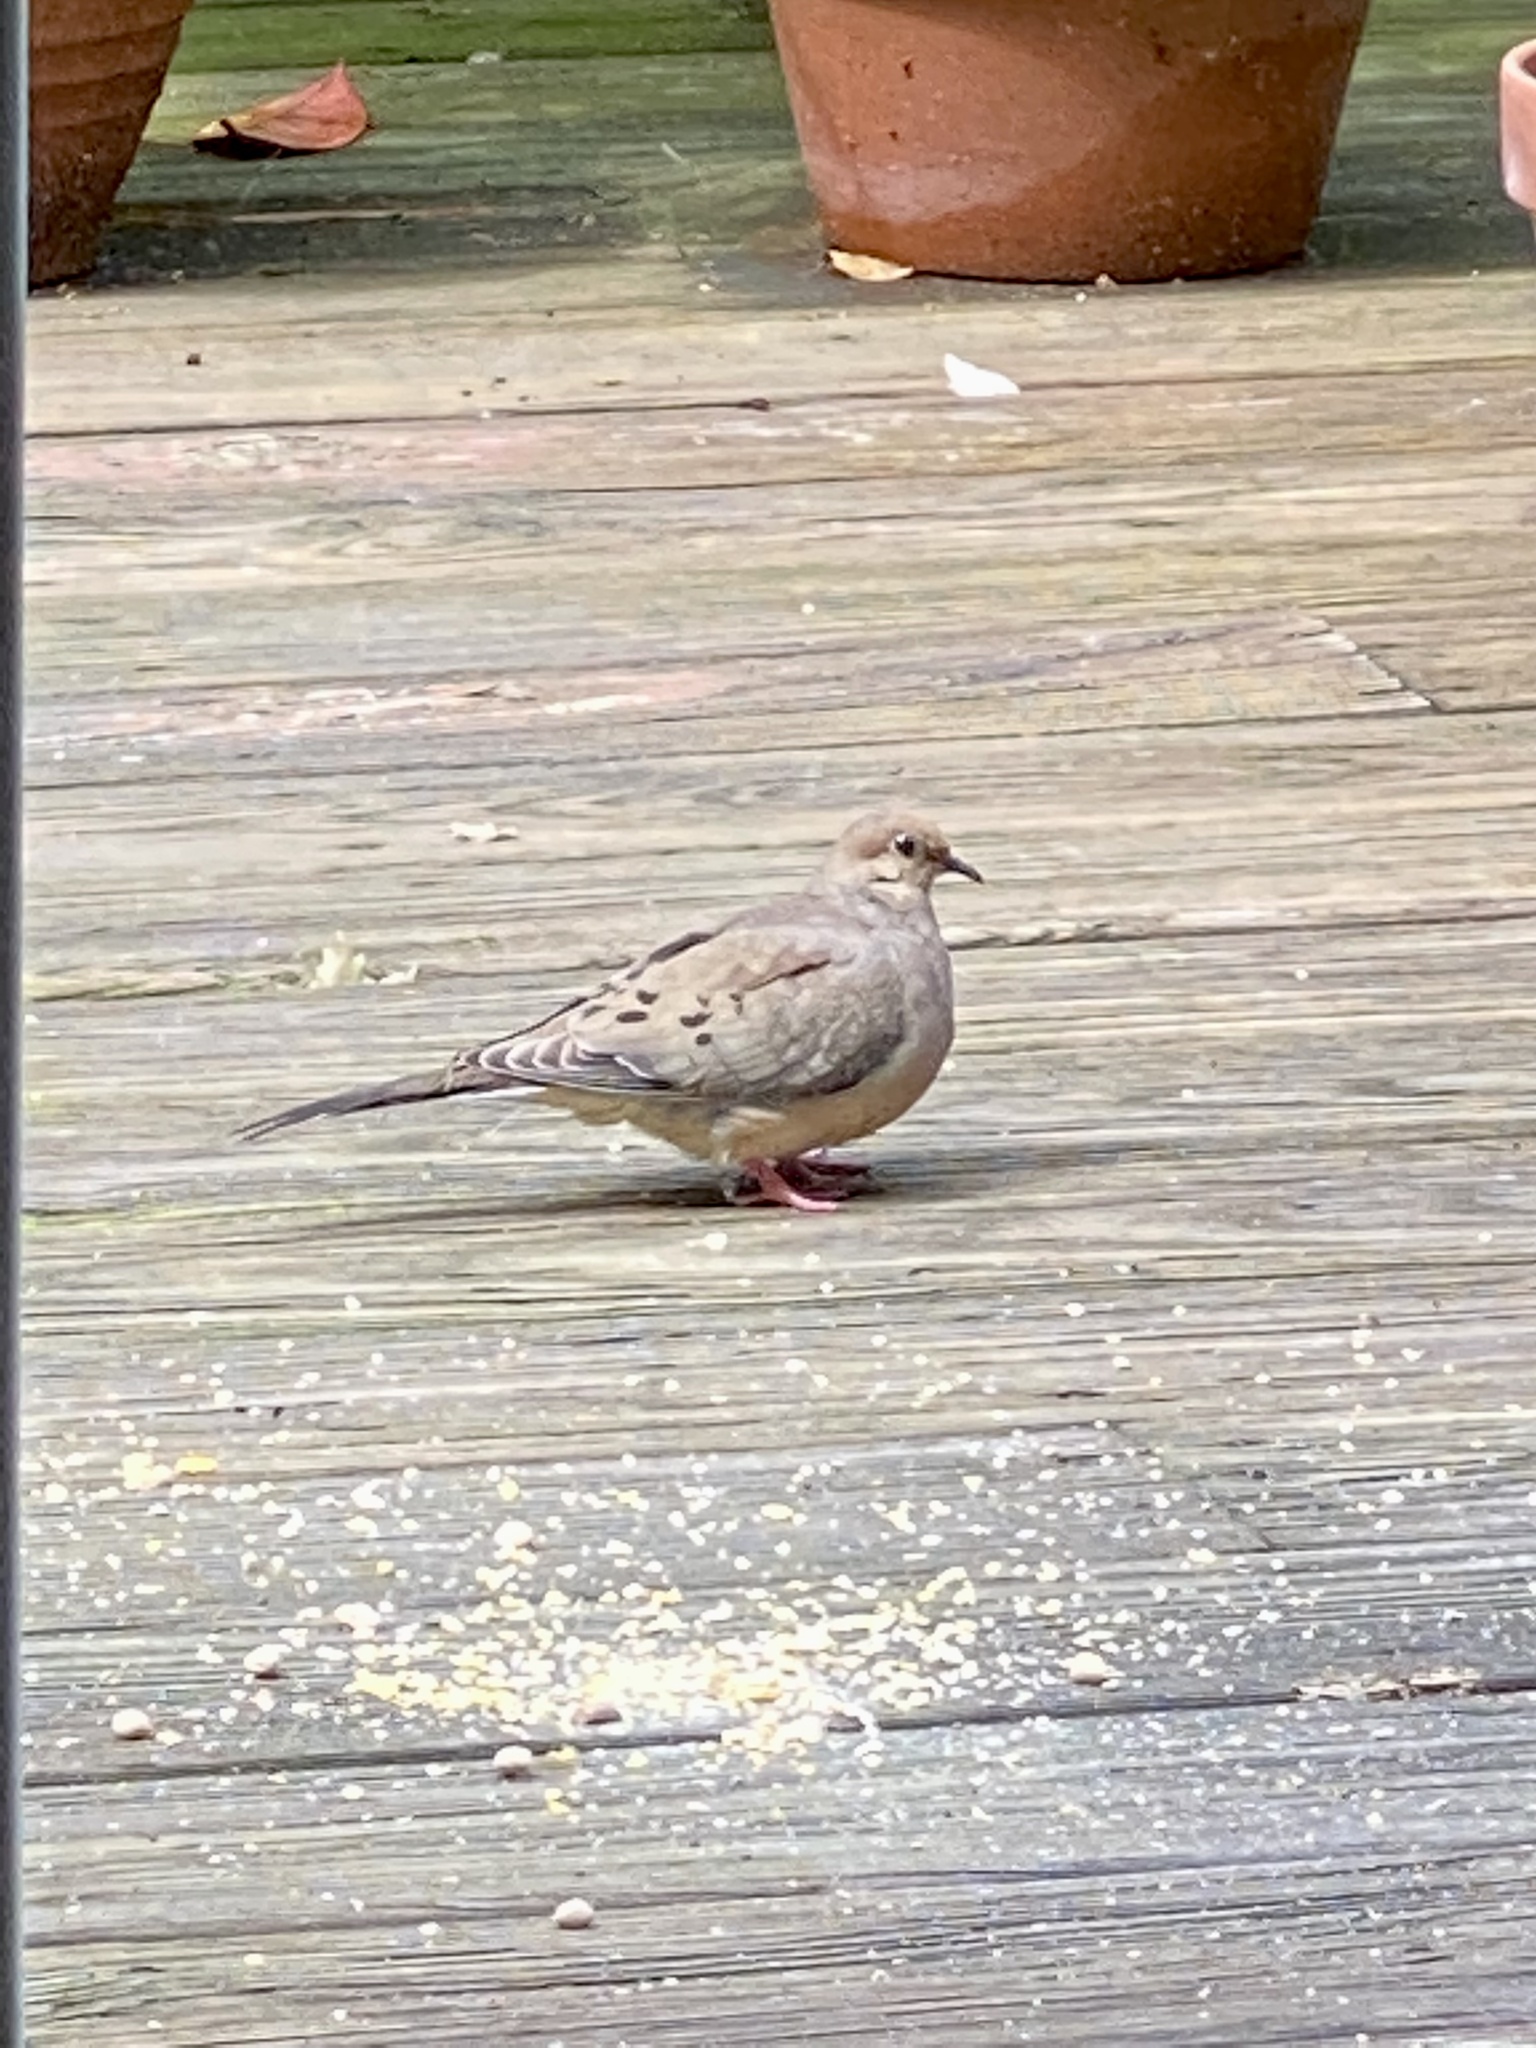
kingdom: Animalia
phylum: Chordata
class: Aves
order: Columbiformes
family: Columbidae
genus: Zenaida
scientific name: Zenaida macroura
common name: Mourning dove
